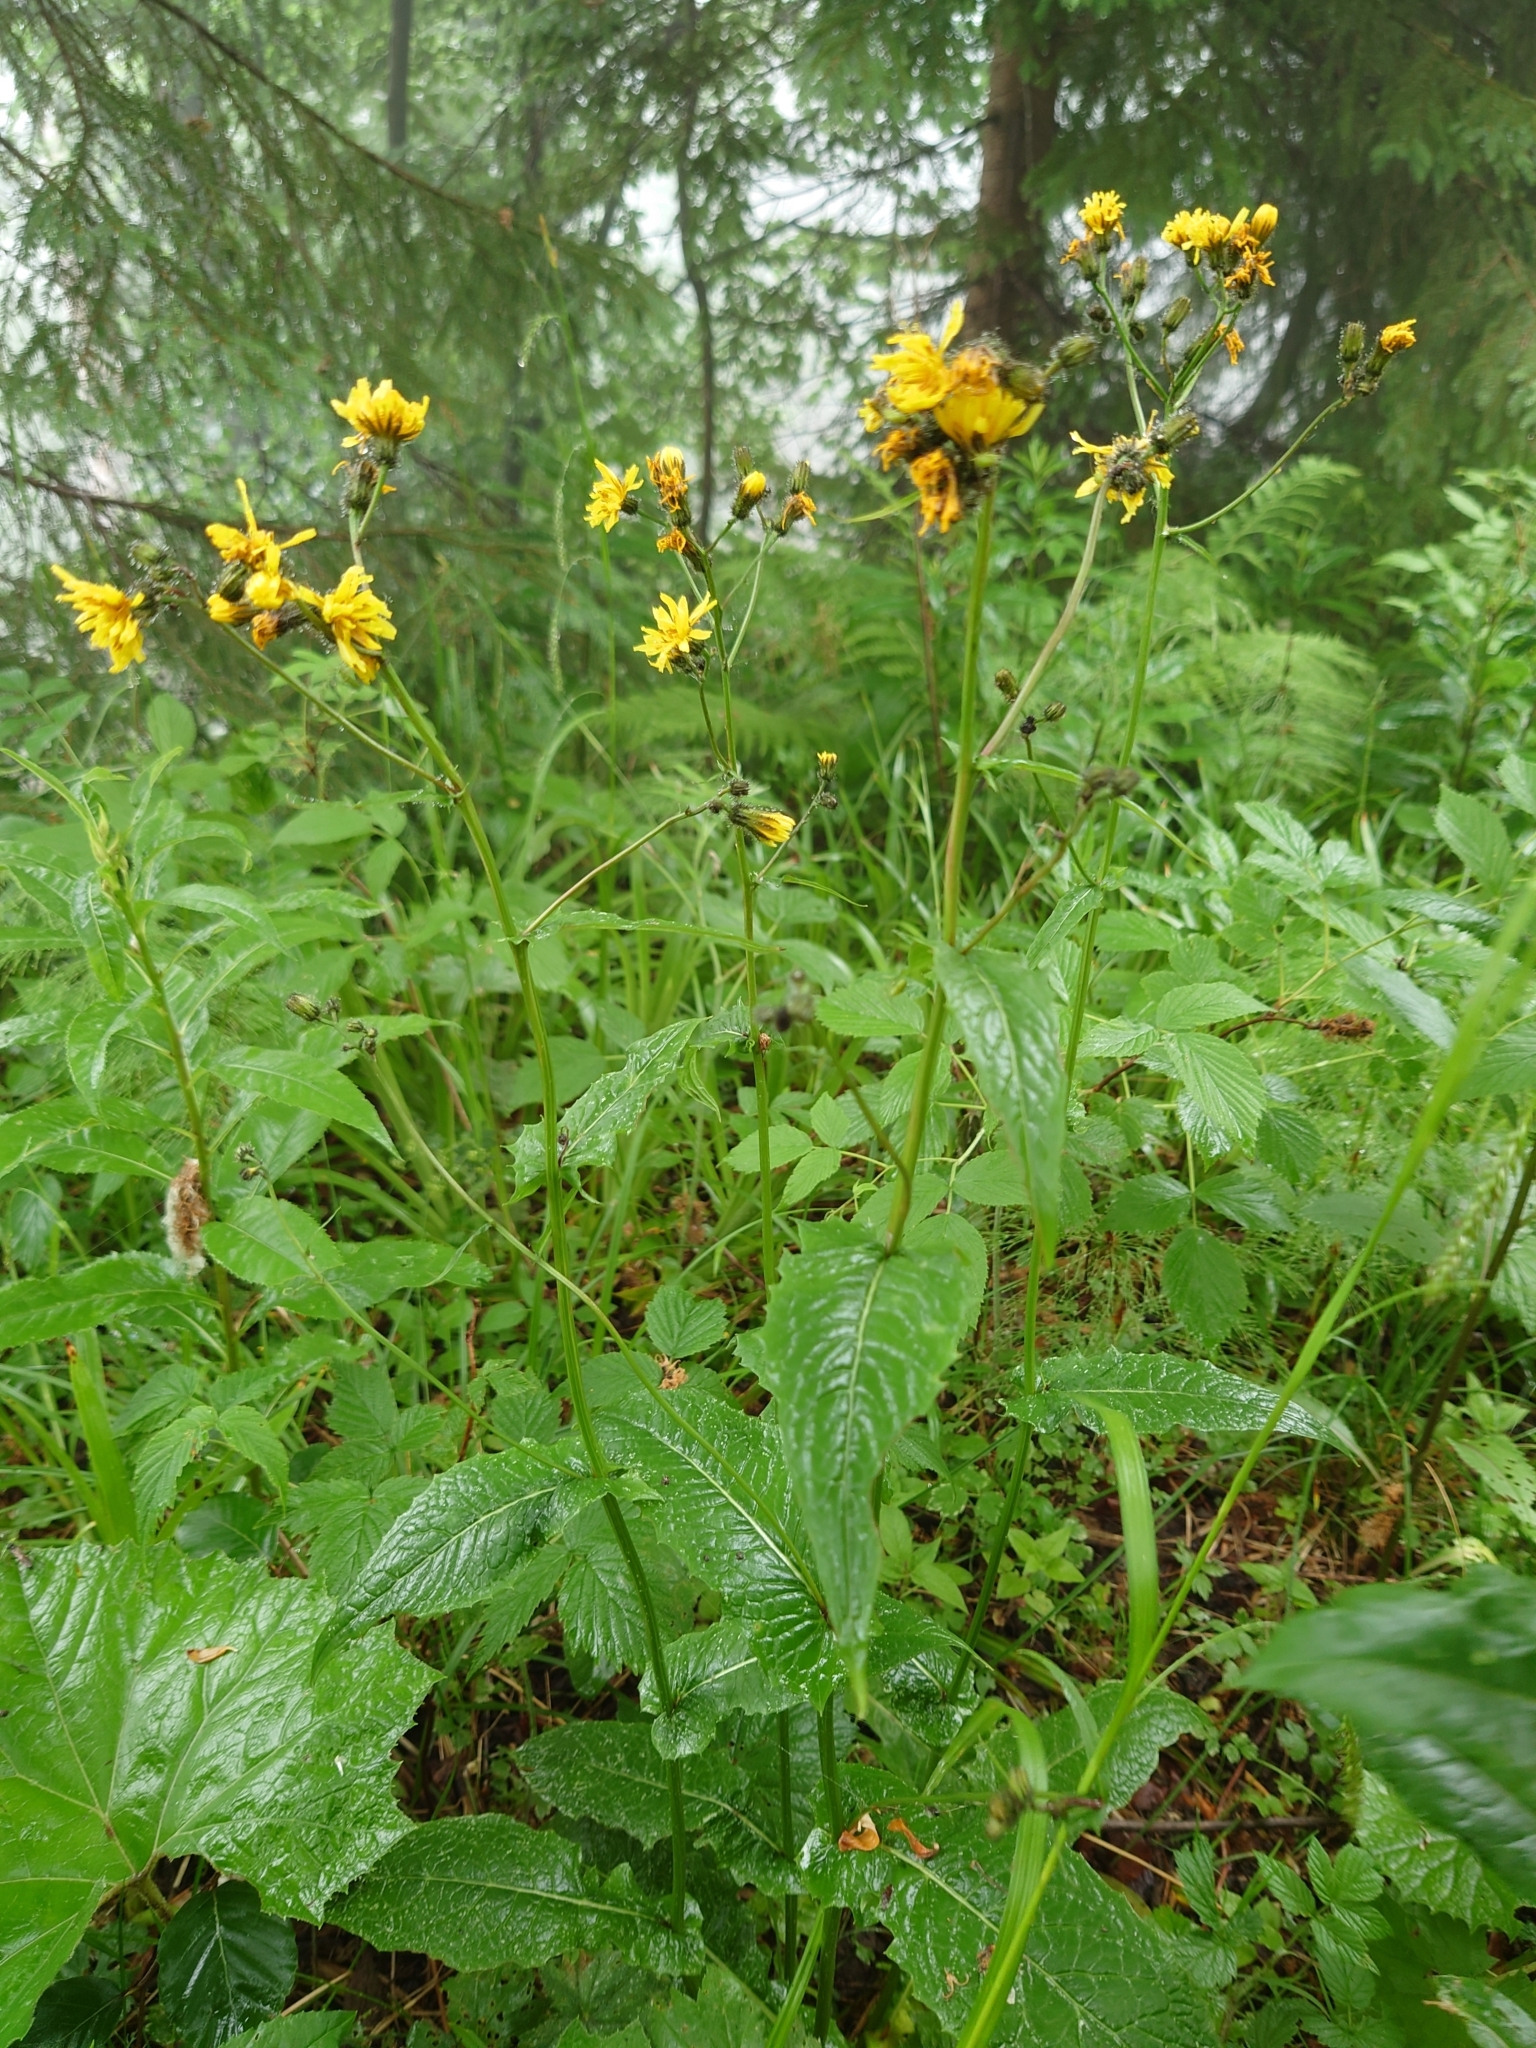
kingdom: Plantae
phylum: Tracheophyta
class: Magnoliopsida
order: Asterales
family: Asteraceae
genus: Crepis
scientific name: Crepis paludosa
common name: Marsh hawk's-beard
